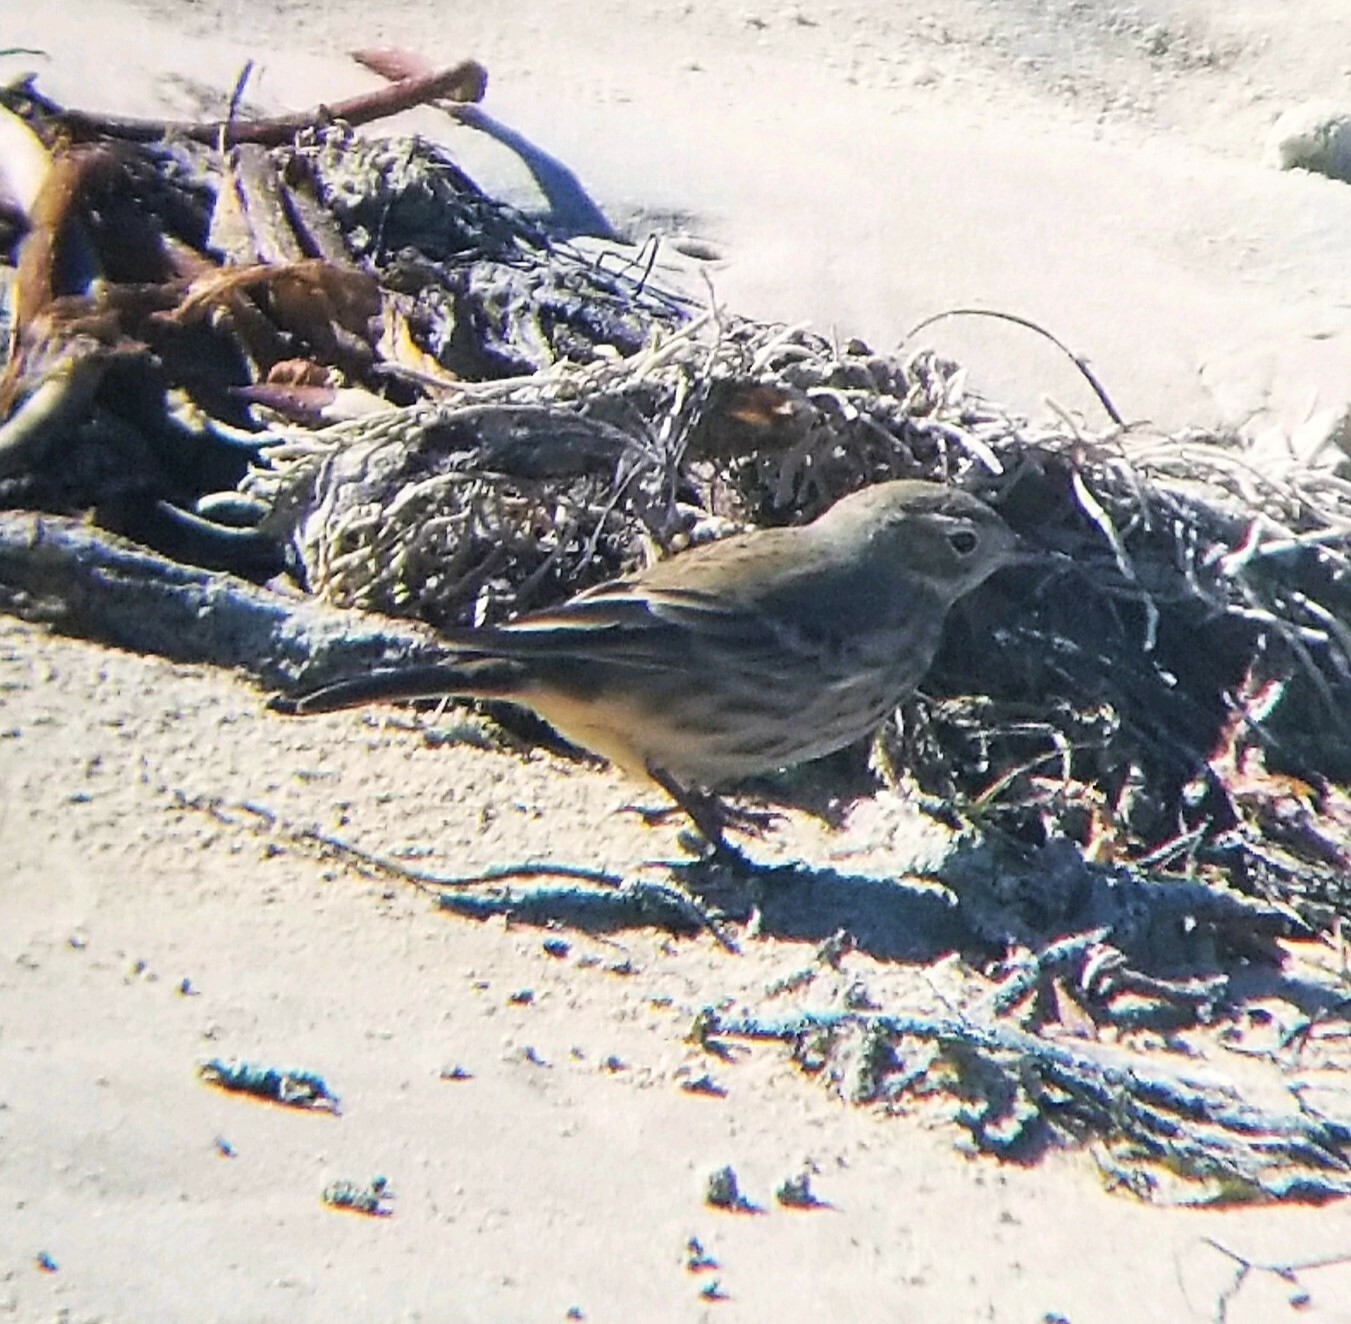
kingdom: Animalia
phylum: Chordata
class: Aves
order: Passeriformes
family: Motacillidae
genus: Anthus
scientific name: Anthus rubescens
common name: Buff-bellied pipit
